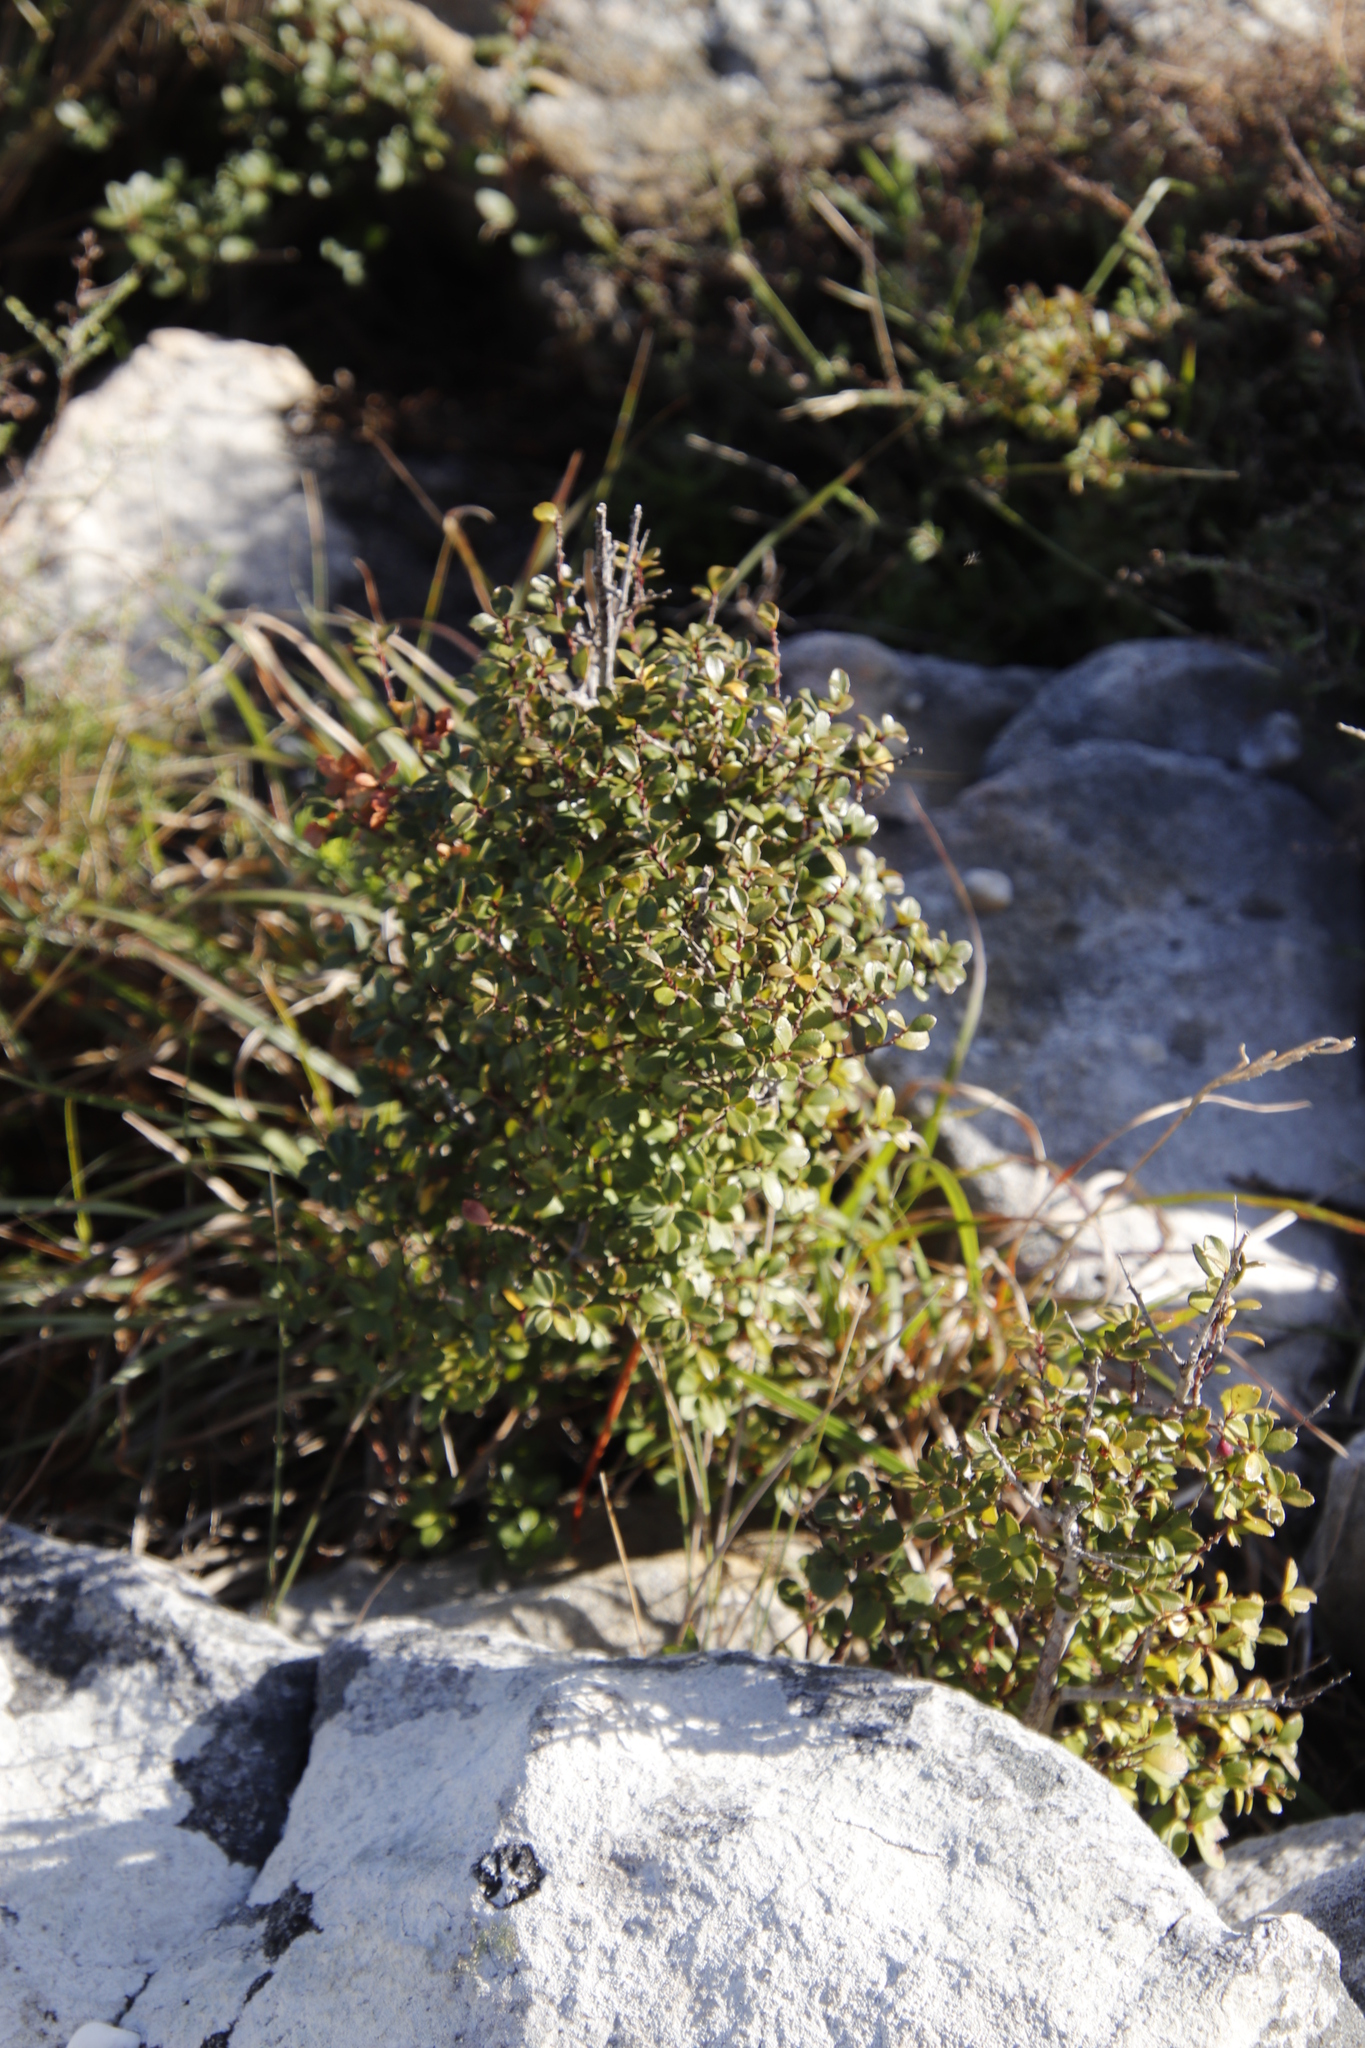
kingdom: Plantae
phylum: Tracheophyta
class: Magnoliopsida
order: Ericales
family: Primulaceae
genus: Myrsine
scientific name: Myrsine africana
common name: African-boxwood
